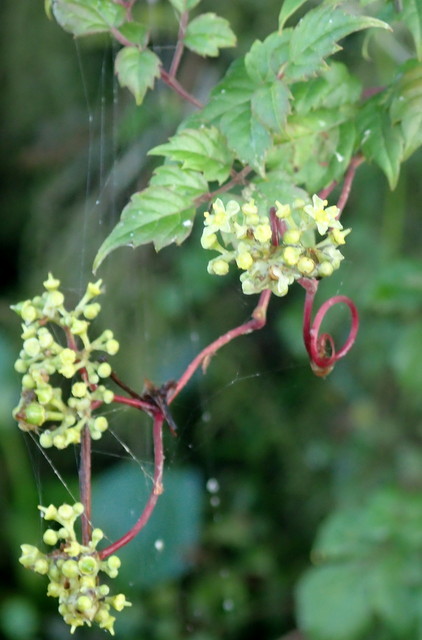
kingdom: Plantae
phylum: Tracheophyta
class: Magnoliopsida
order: Vitales
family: Vitaceae
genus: Nekemias
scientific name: Nekemias arborea
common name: Peppervine
